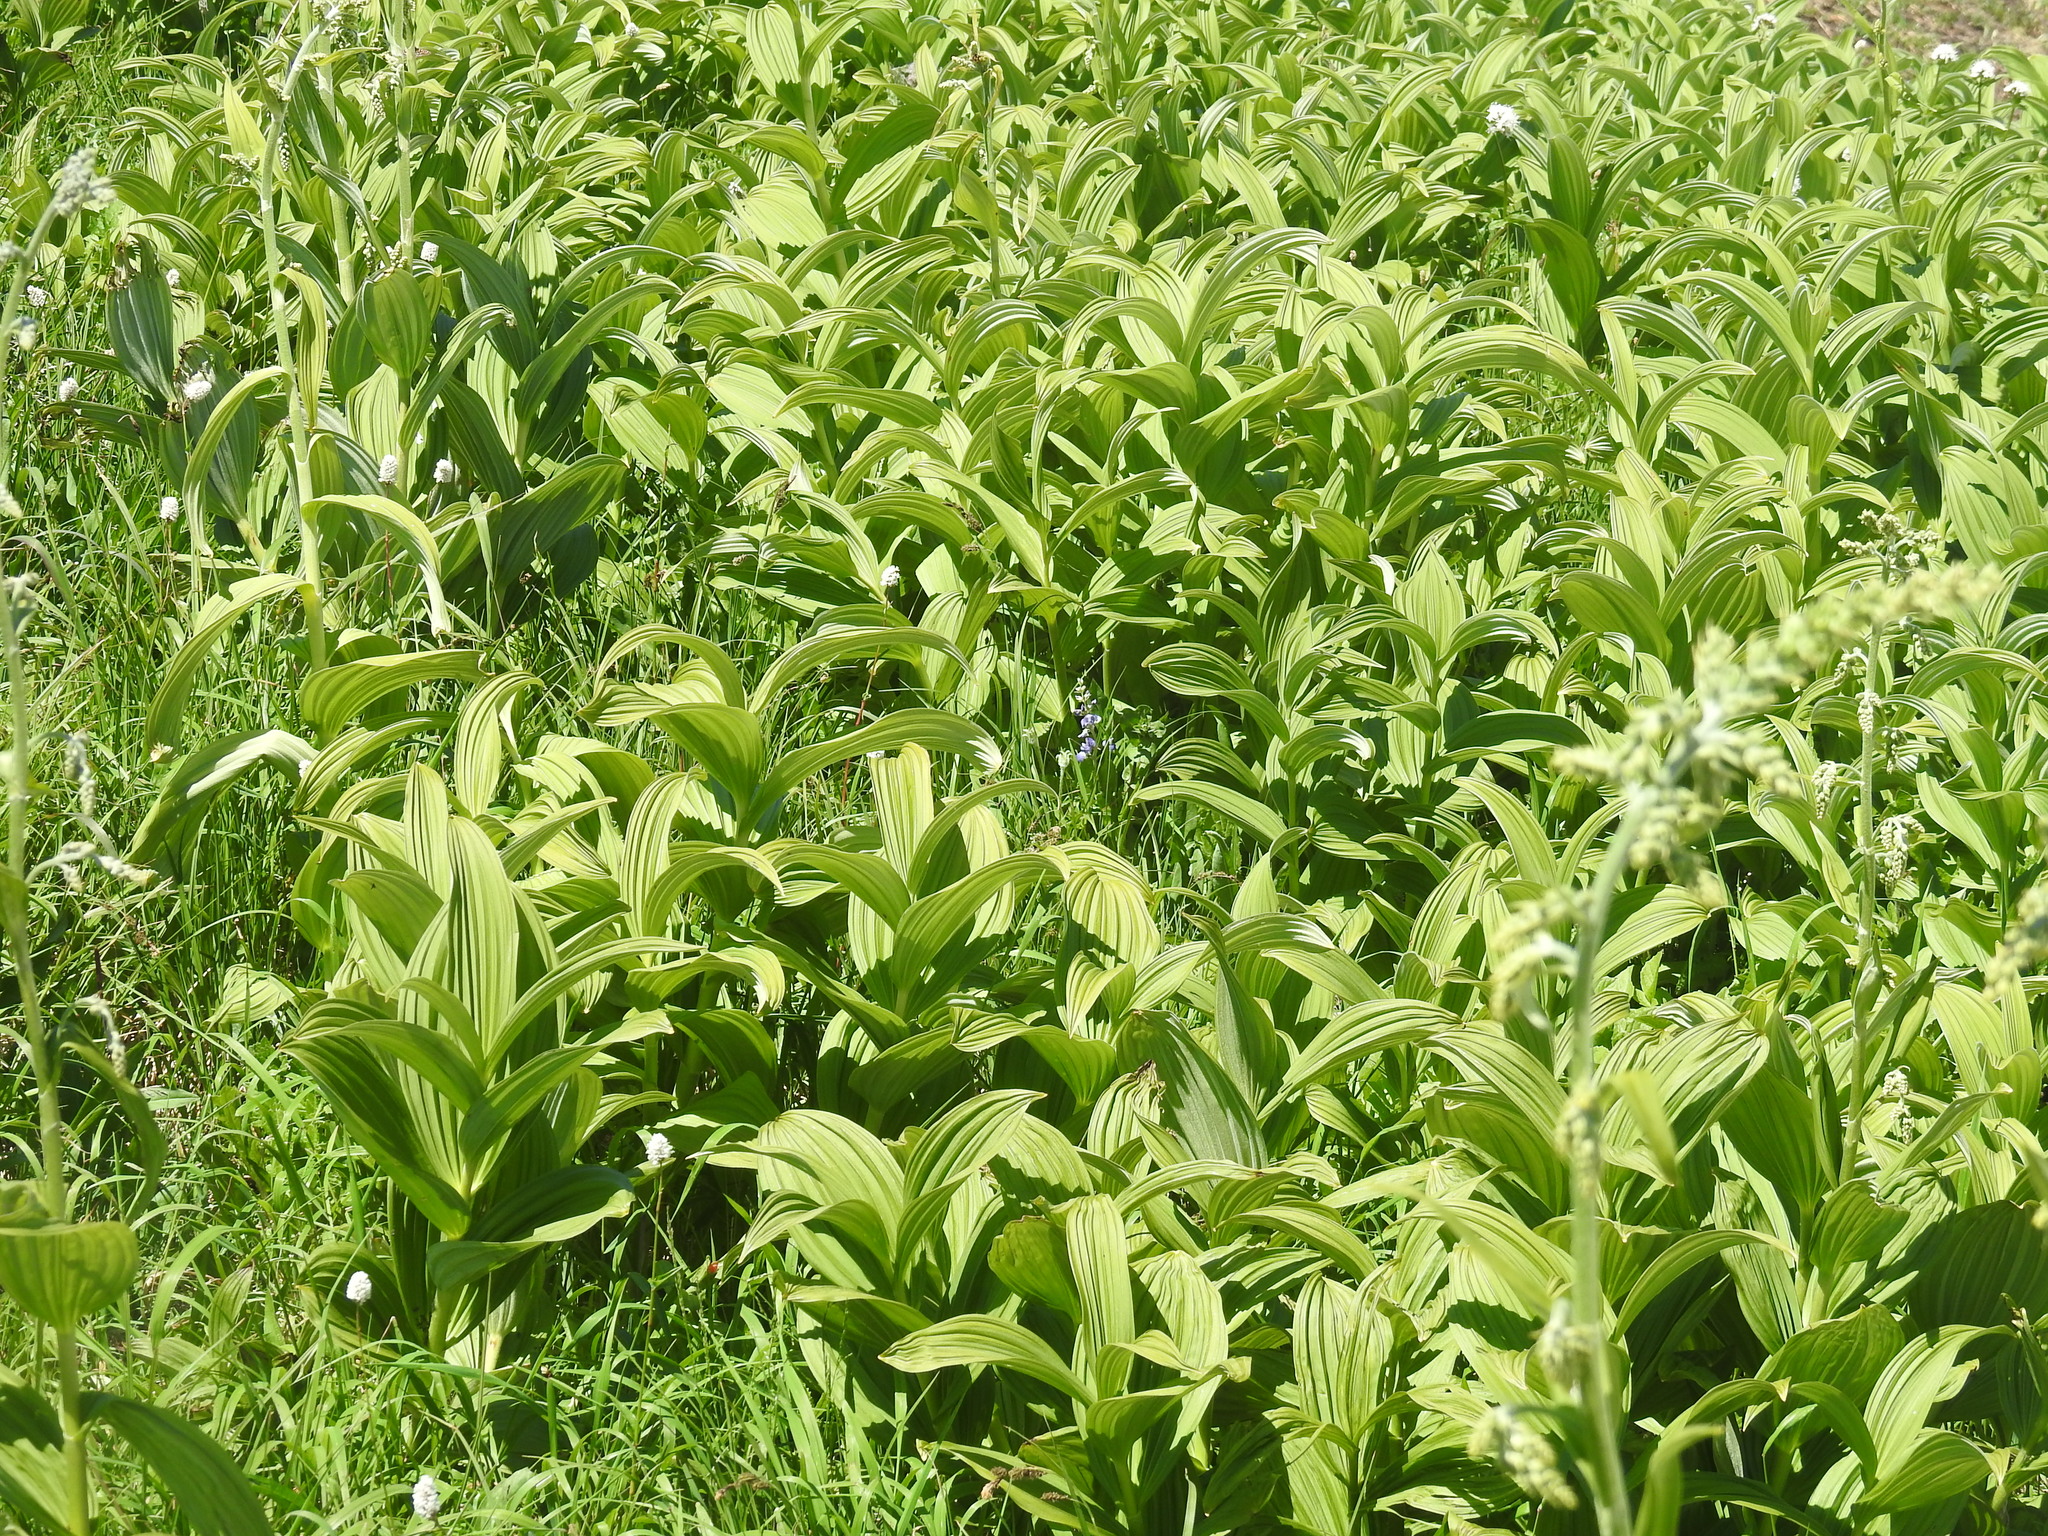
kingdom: Plantae
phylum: Tracheophyta
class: Liliopsida
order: Liliales
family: Melanthiaceae
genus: Veratrum
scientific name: Veratrum viride
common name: American false hellebore
